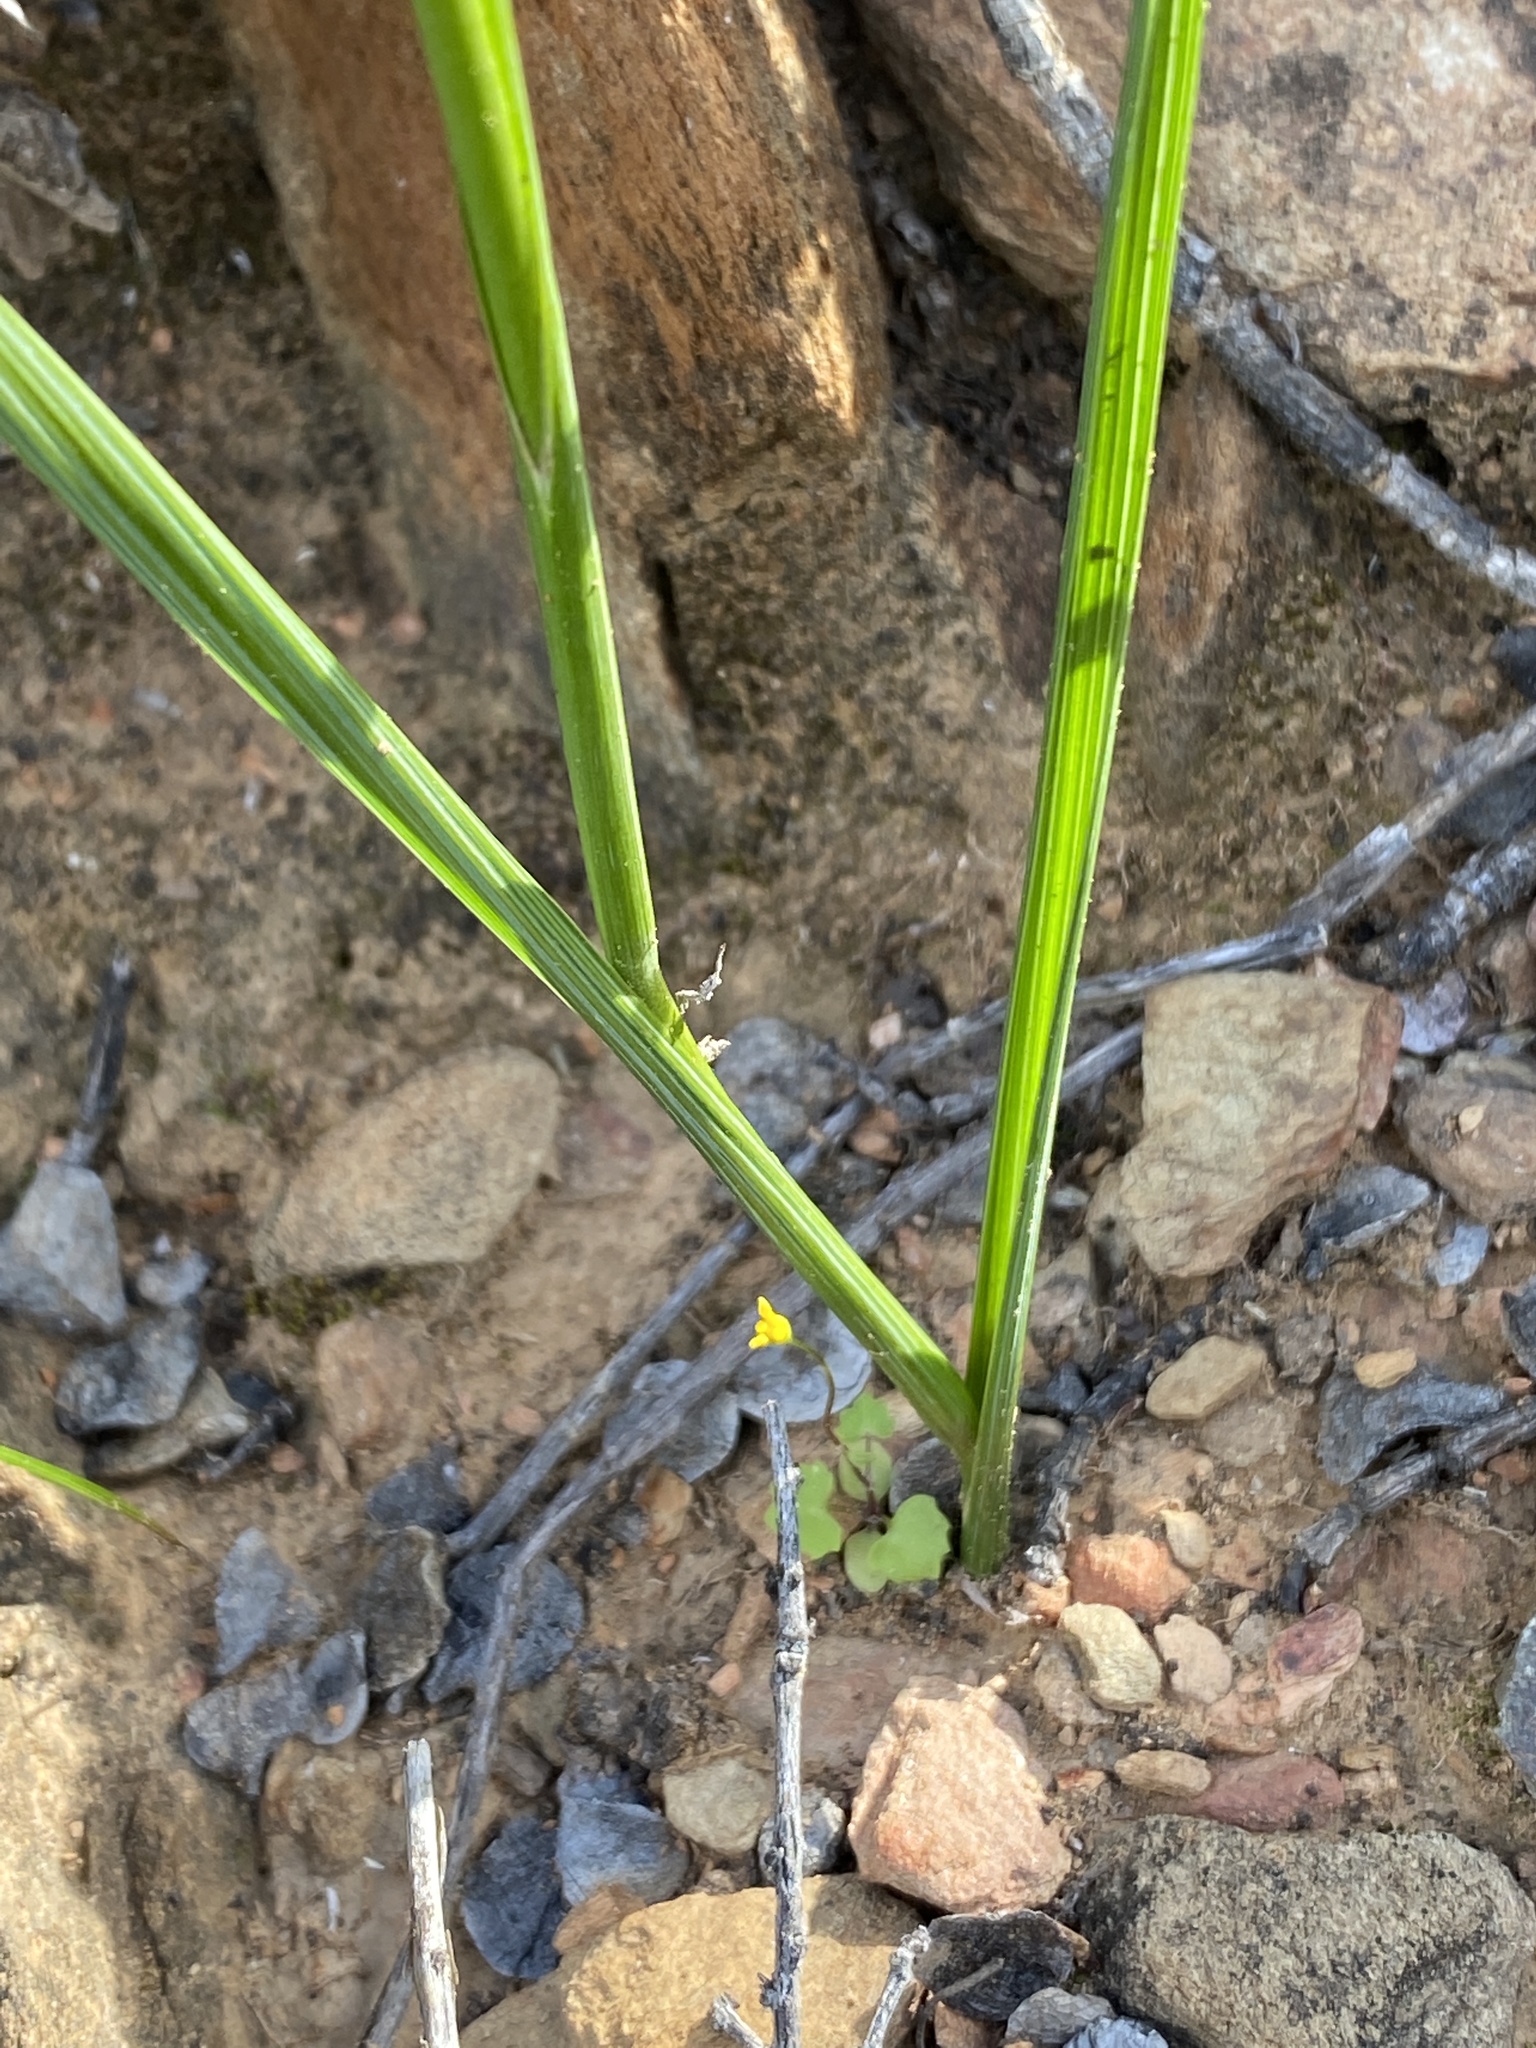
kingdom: Plantae
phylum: Tracheophyta
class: Liliopsida
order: Asparagales
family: Iridaceae
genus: Moraea
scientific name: Moraea polystachya
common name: Blue-tulip
